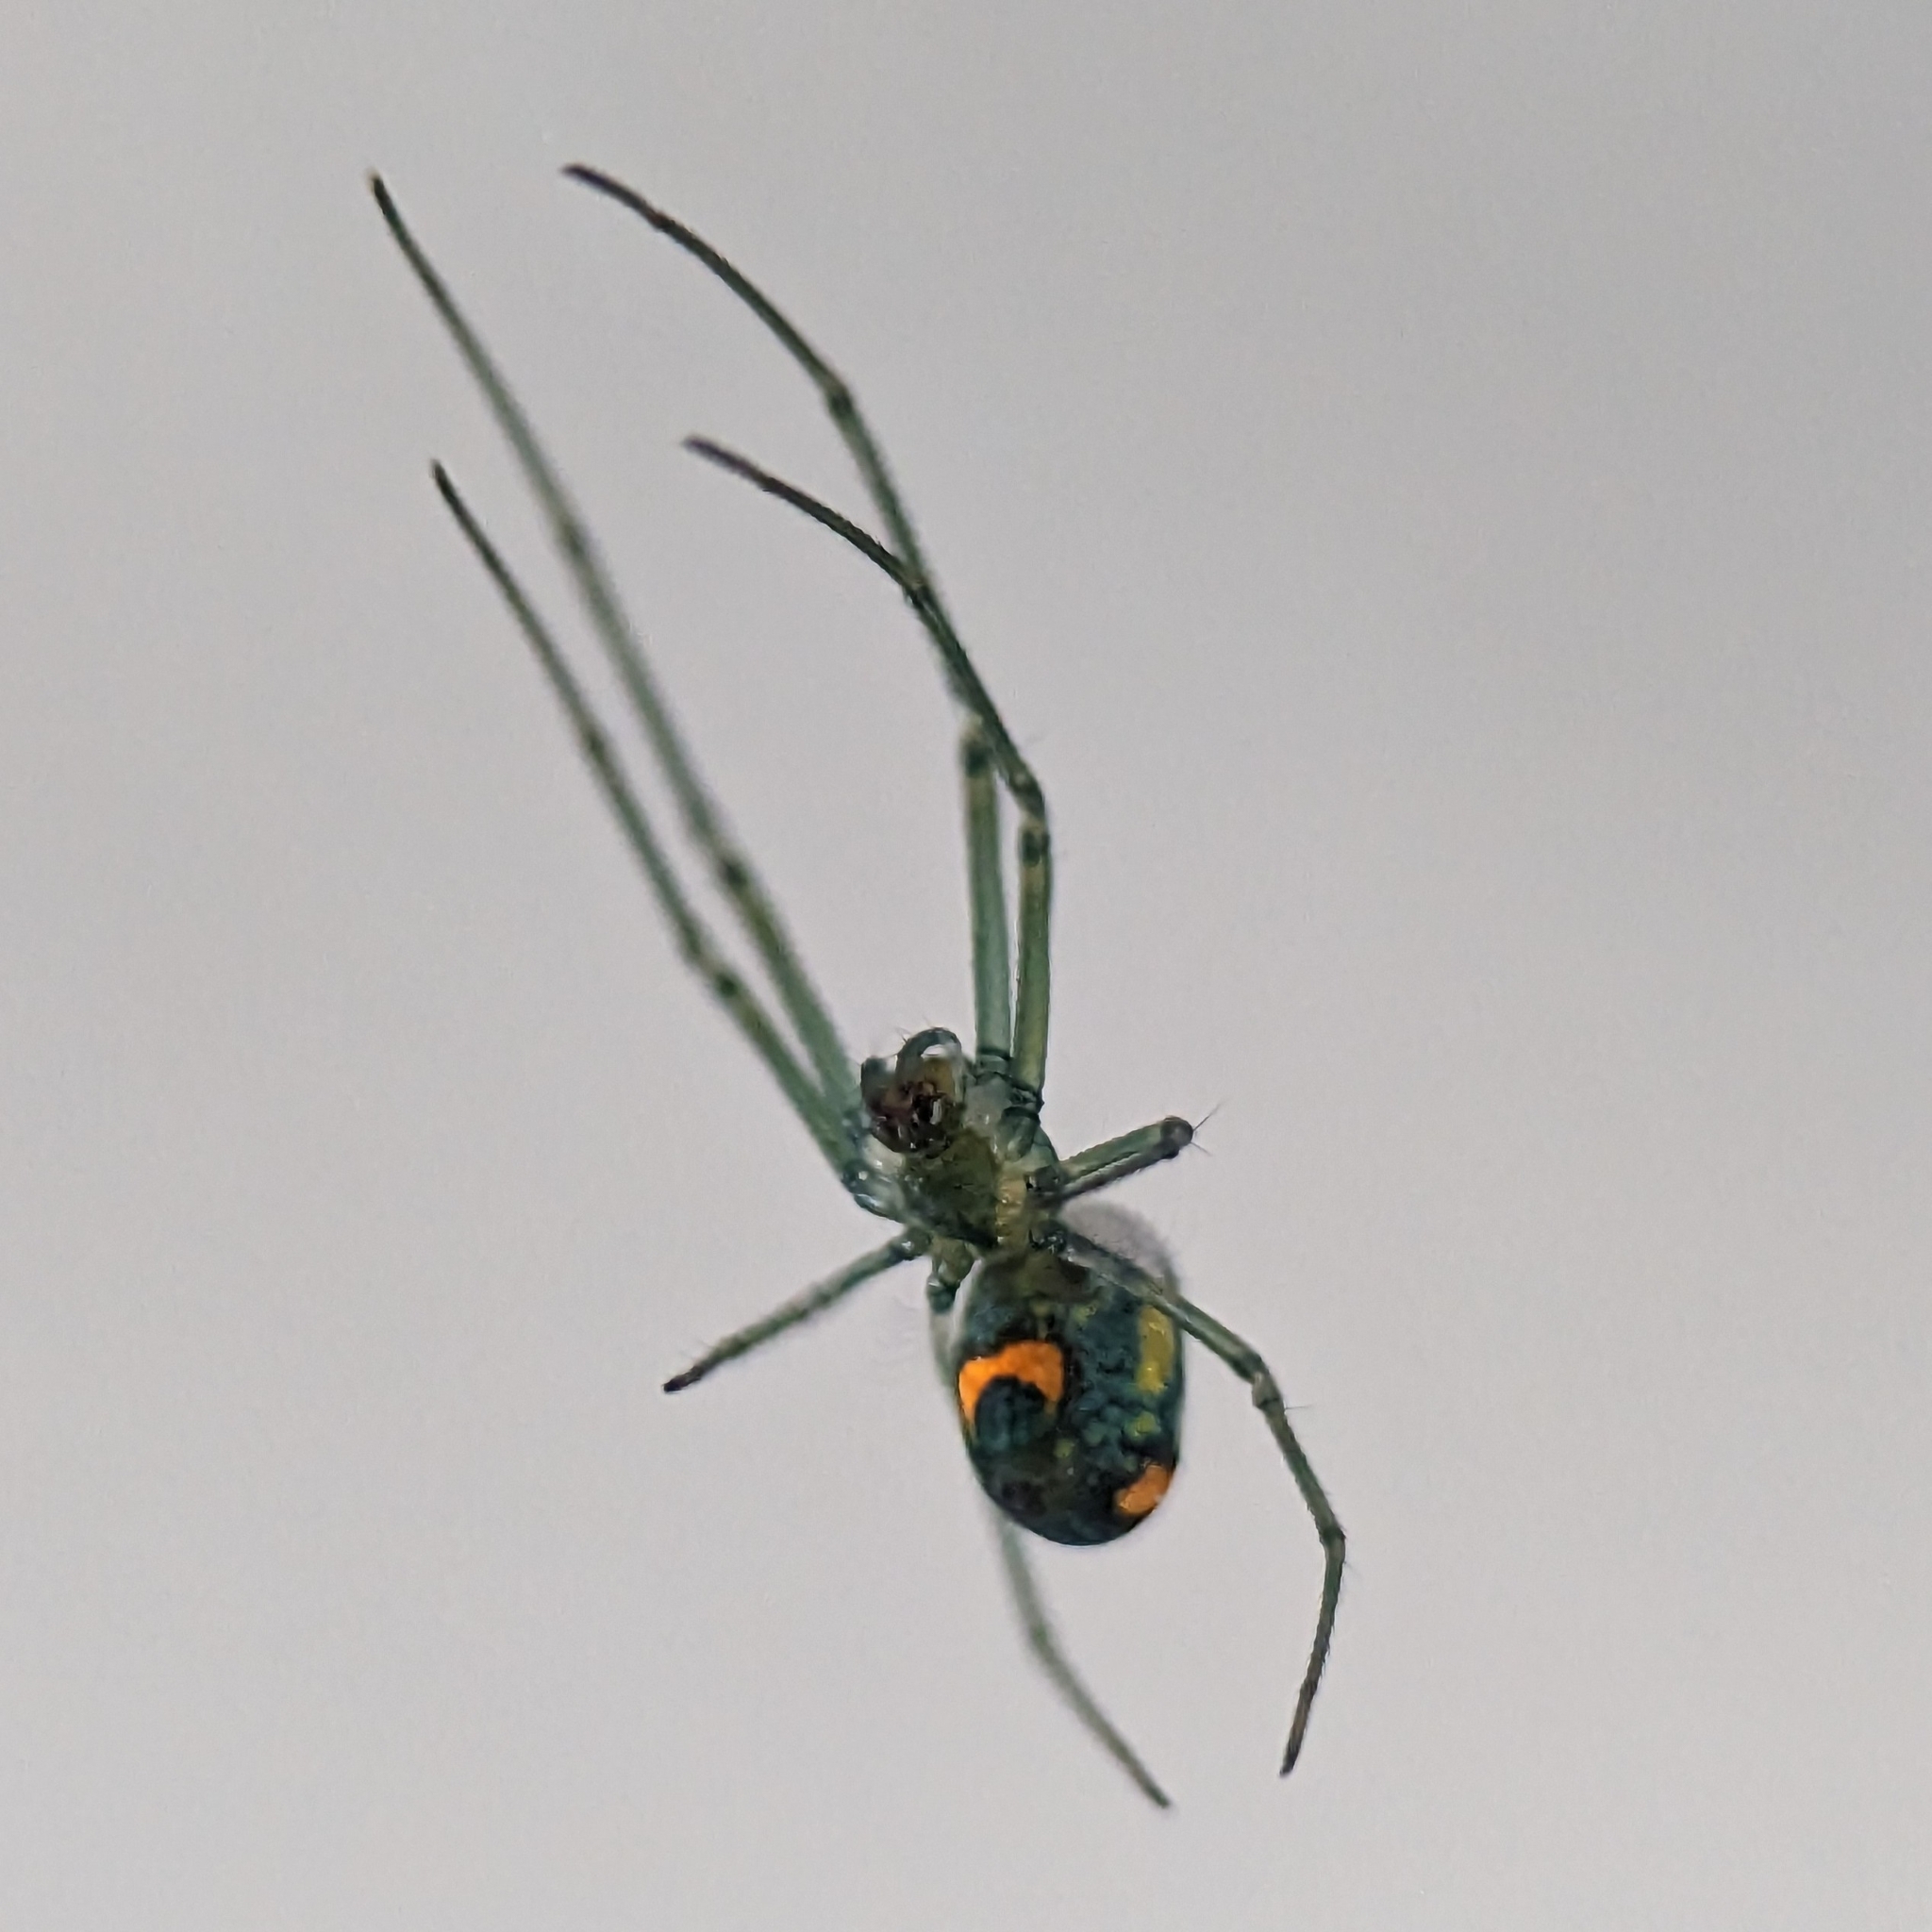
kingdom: Animalia
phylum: Arthropoda
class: Arachnida
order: Araneae
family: Tetragnathidae
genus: Leucauge
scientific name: Leucauge argyrobapta
